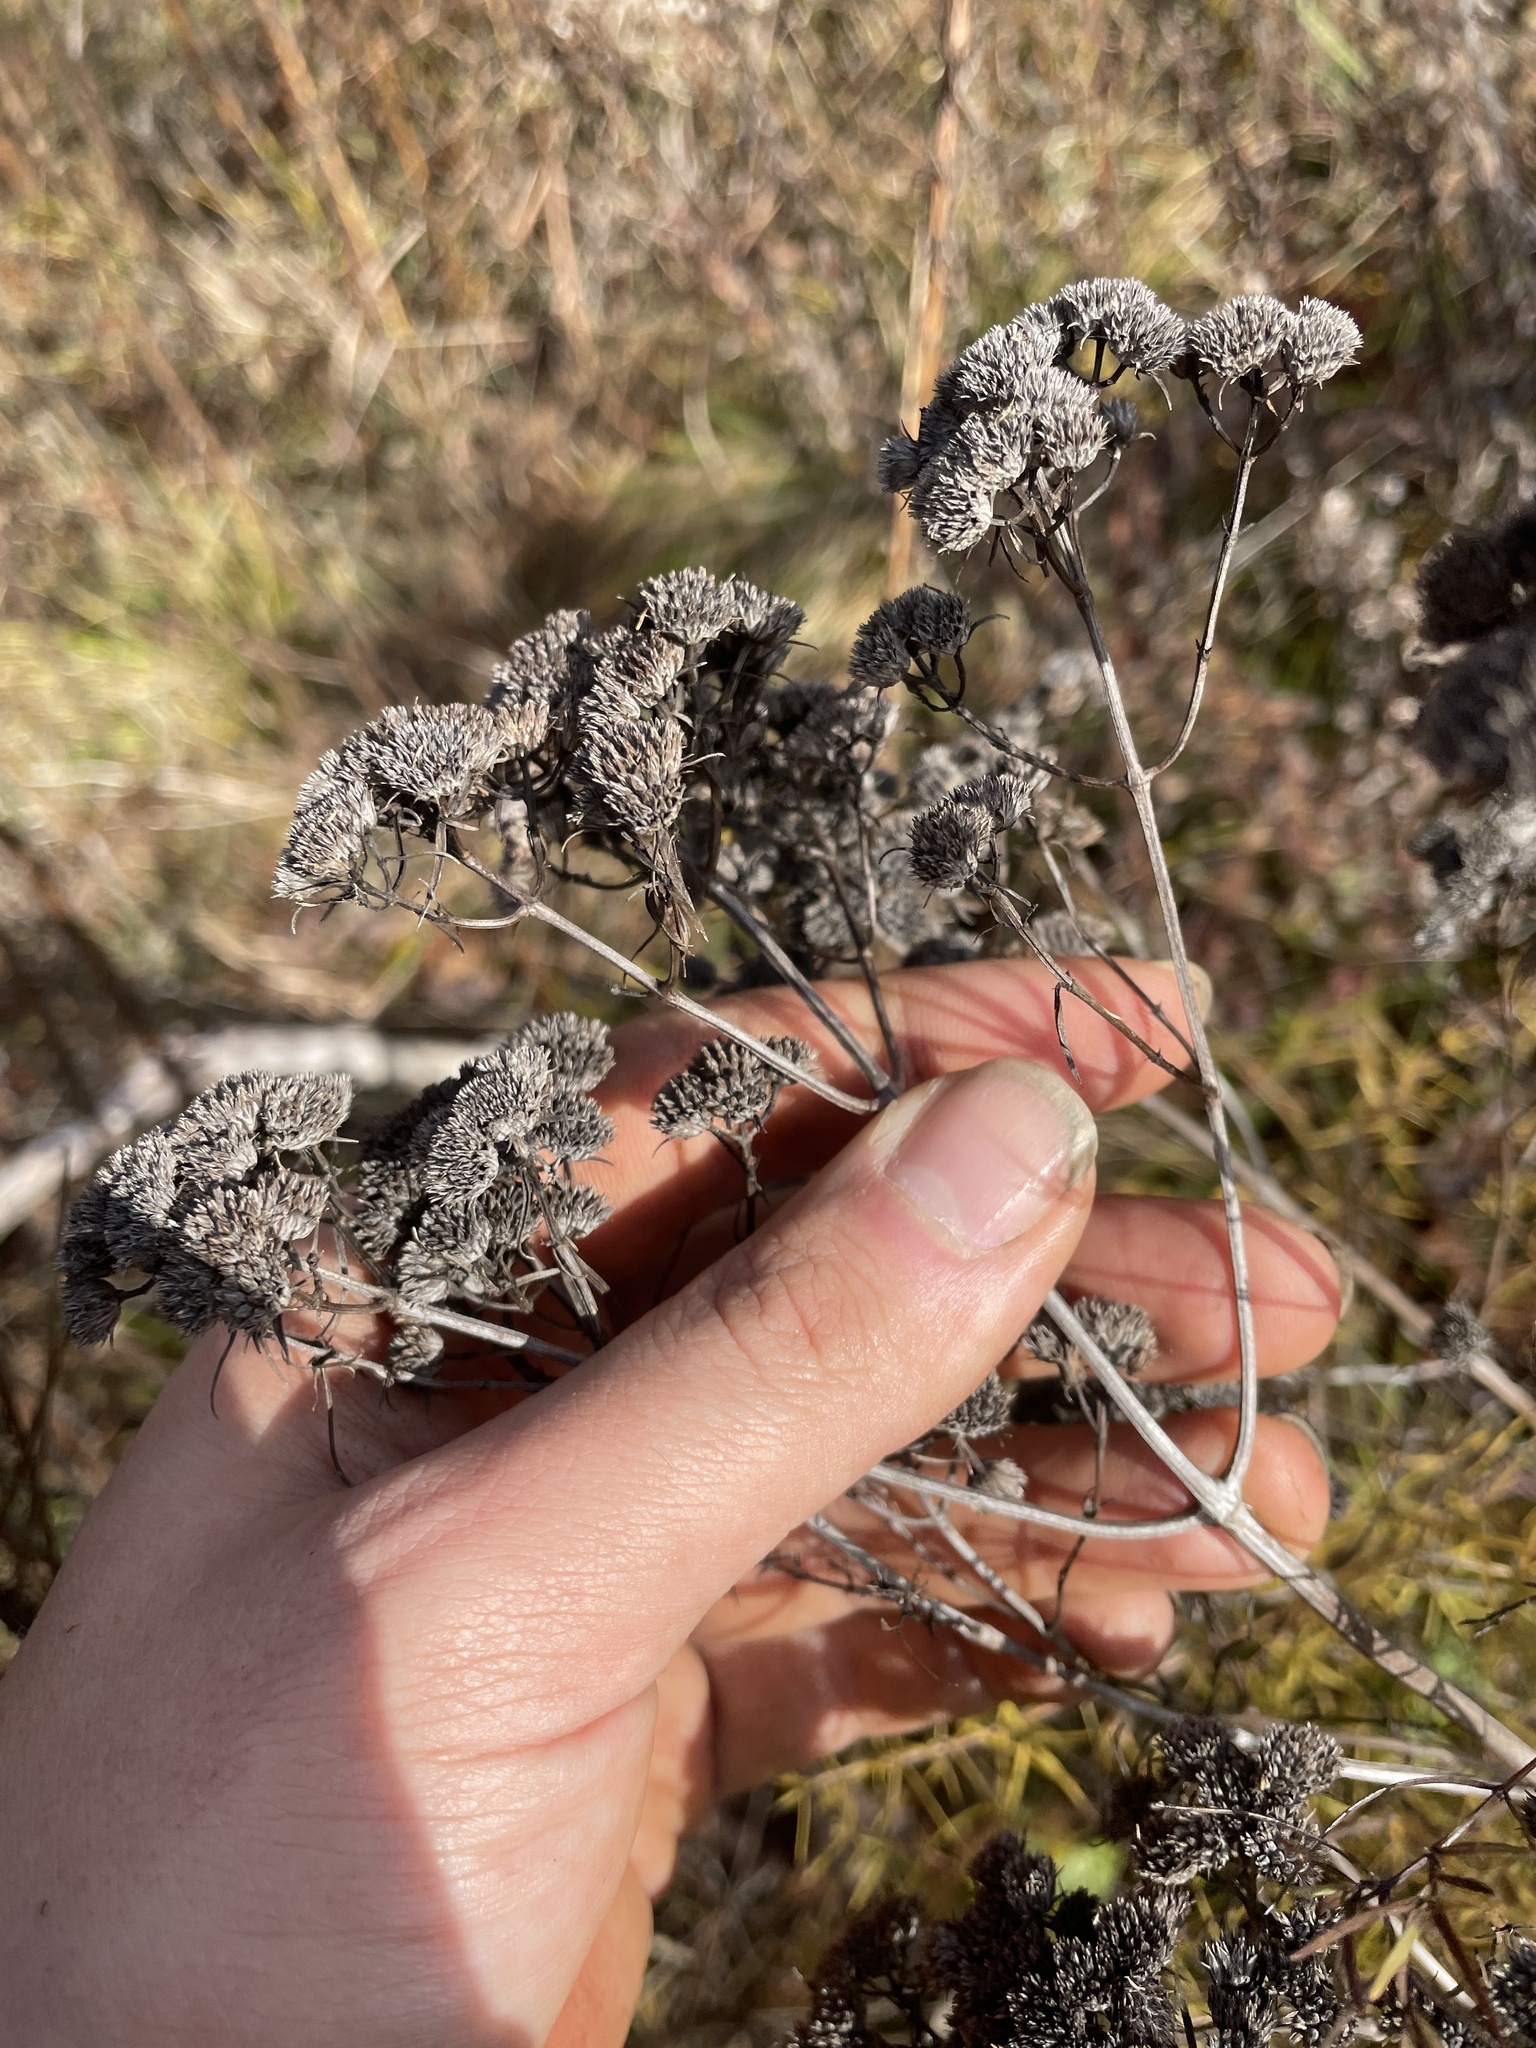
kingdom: Plantae
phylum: Tracheophyta
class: Magnoliopsida
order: Lamiales
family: Lamiaceae
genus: Pycnanthemum
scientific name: Pycnanthemum tenuifolium
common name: Narrow-leaf mountain-mint
